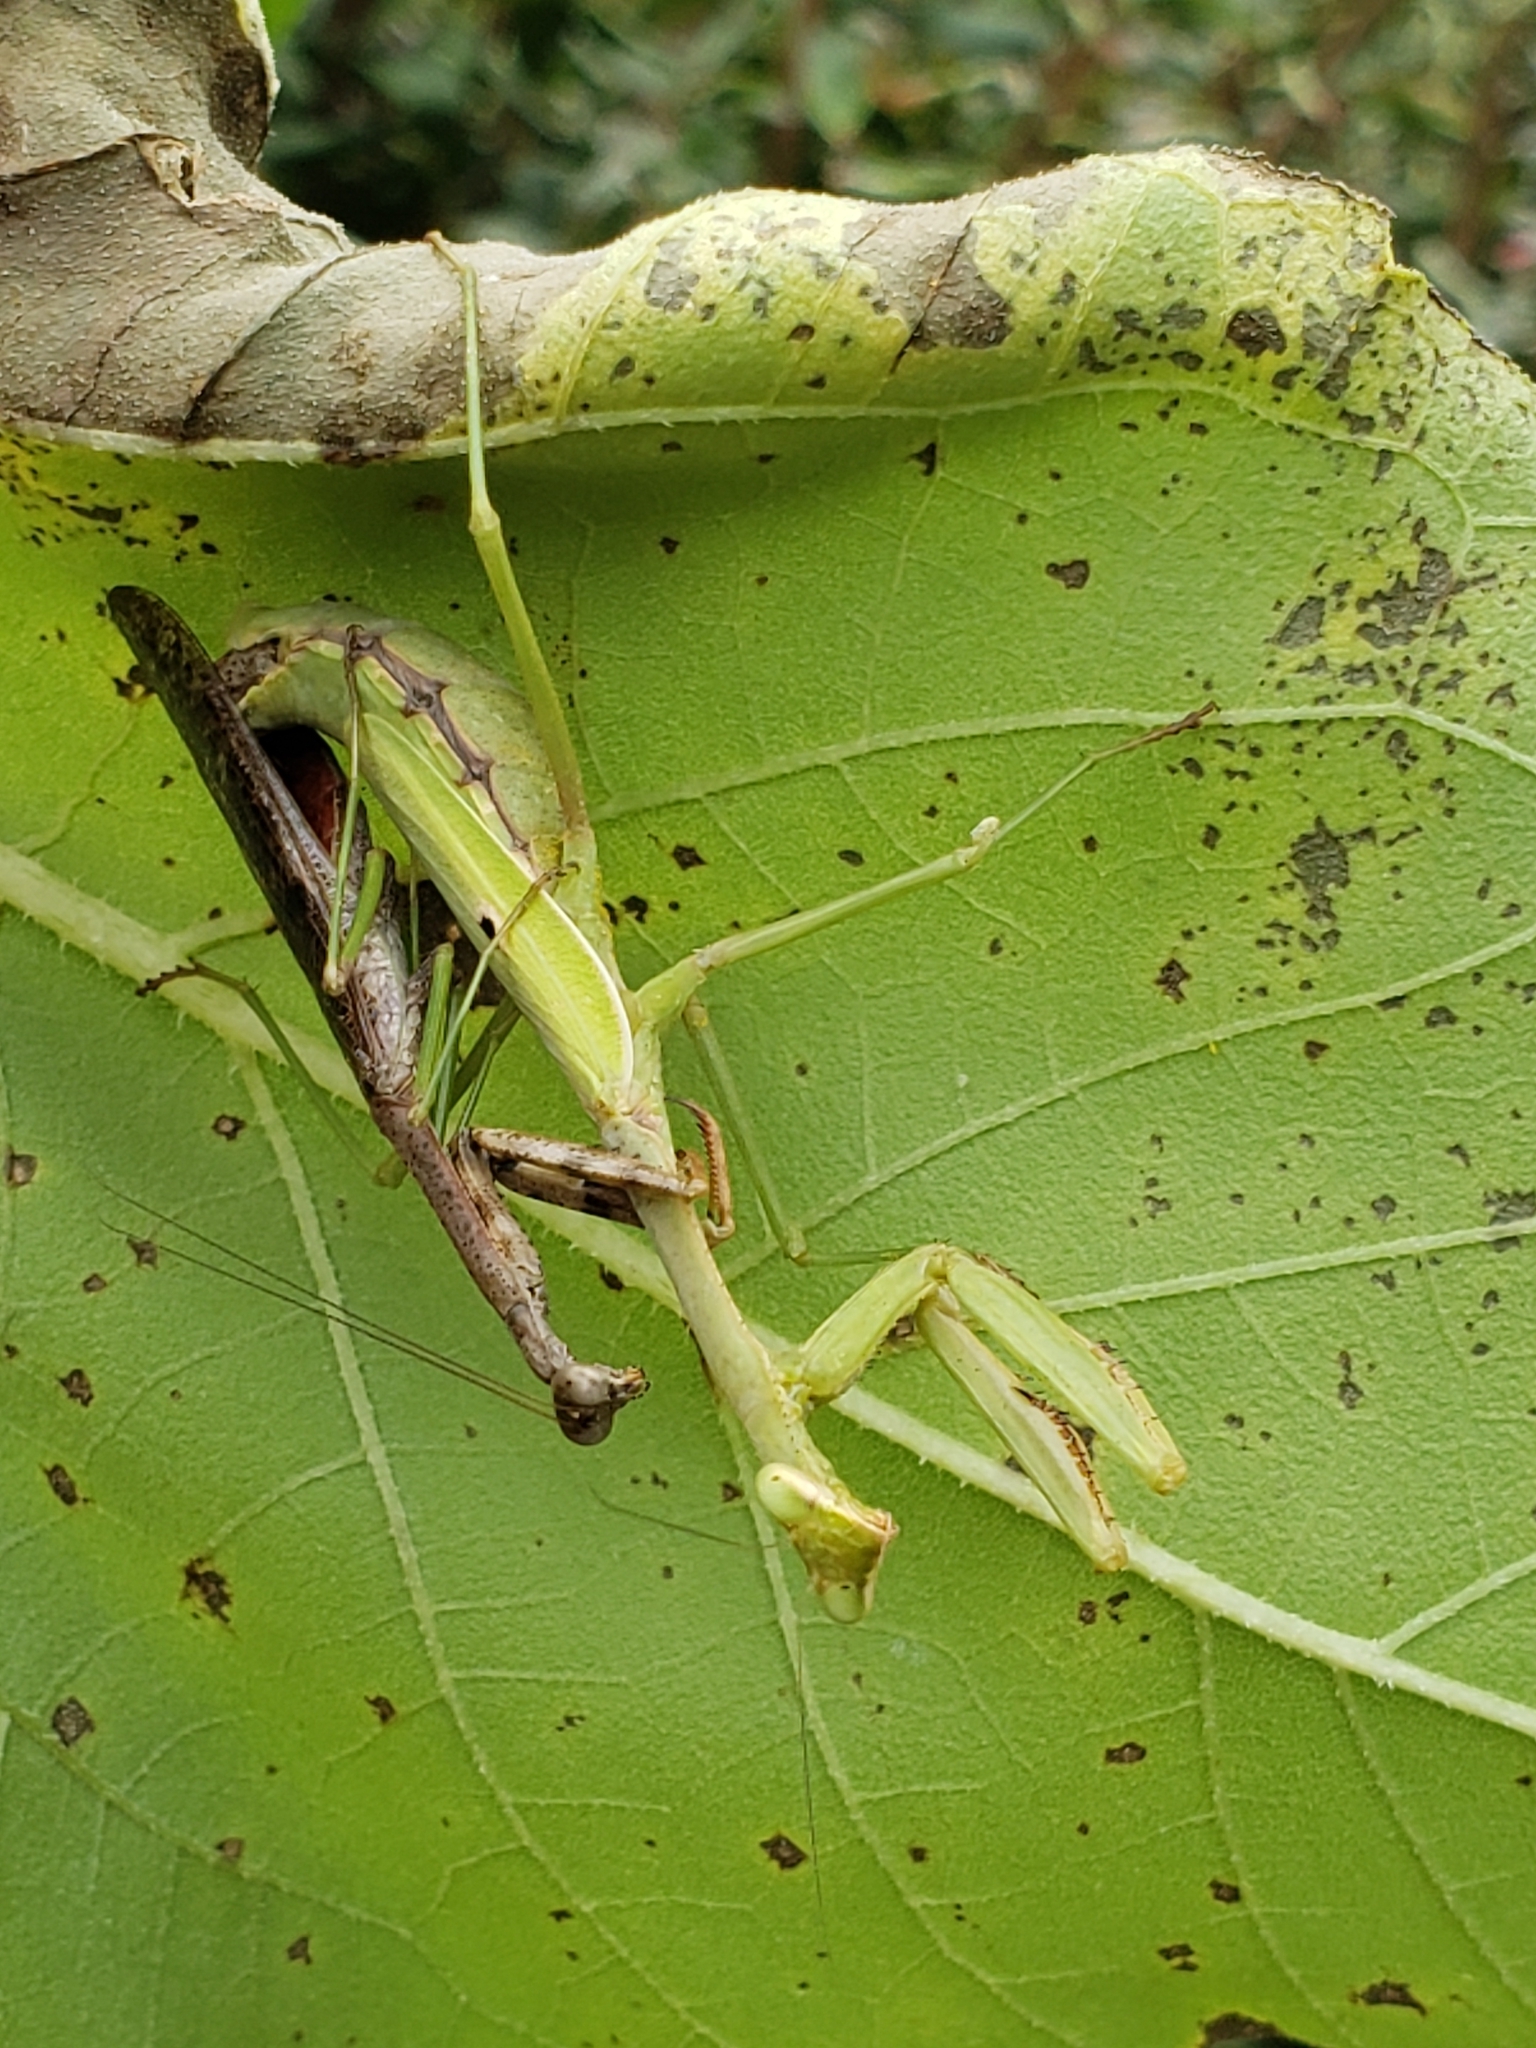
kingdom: Animalia
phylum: Arthropoda
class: Insecta
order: Mantodea
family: Mantidae
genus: Stagmomantis
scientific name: Stagmomantis carolina
